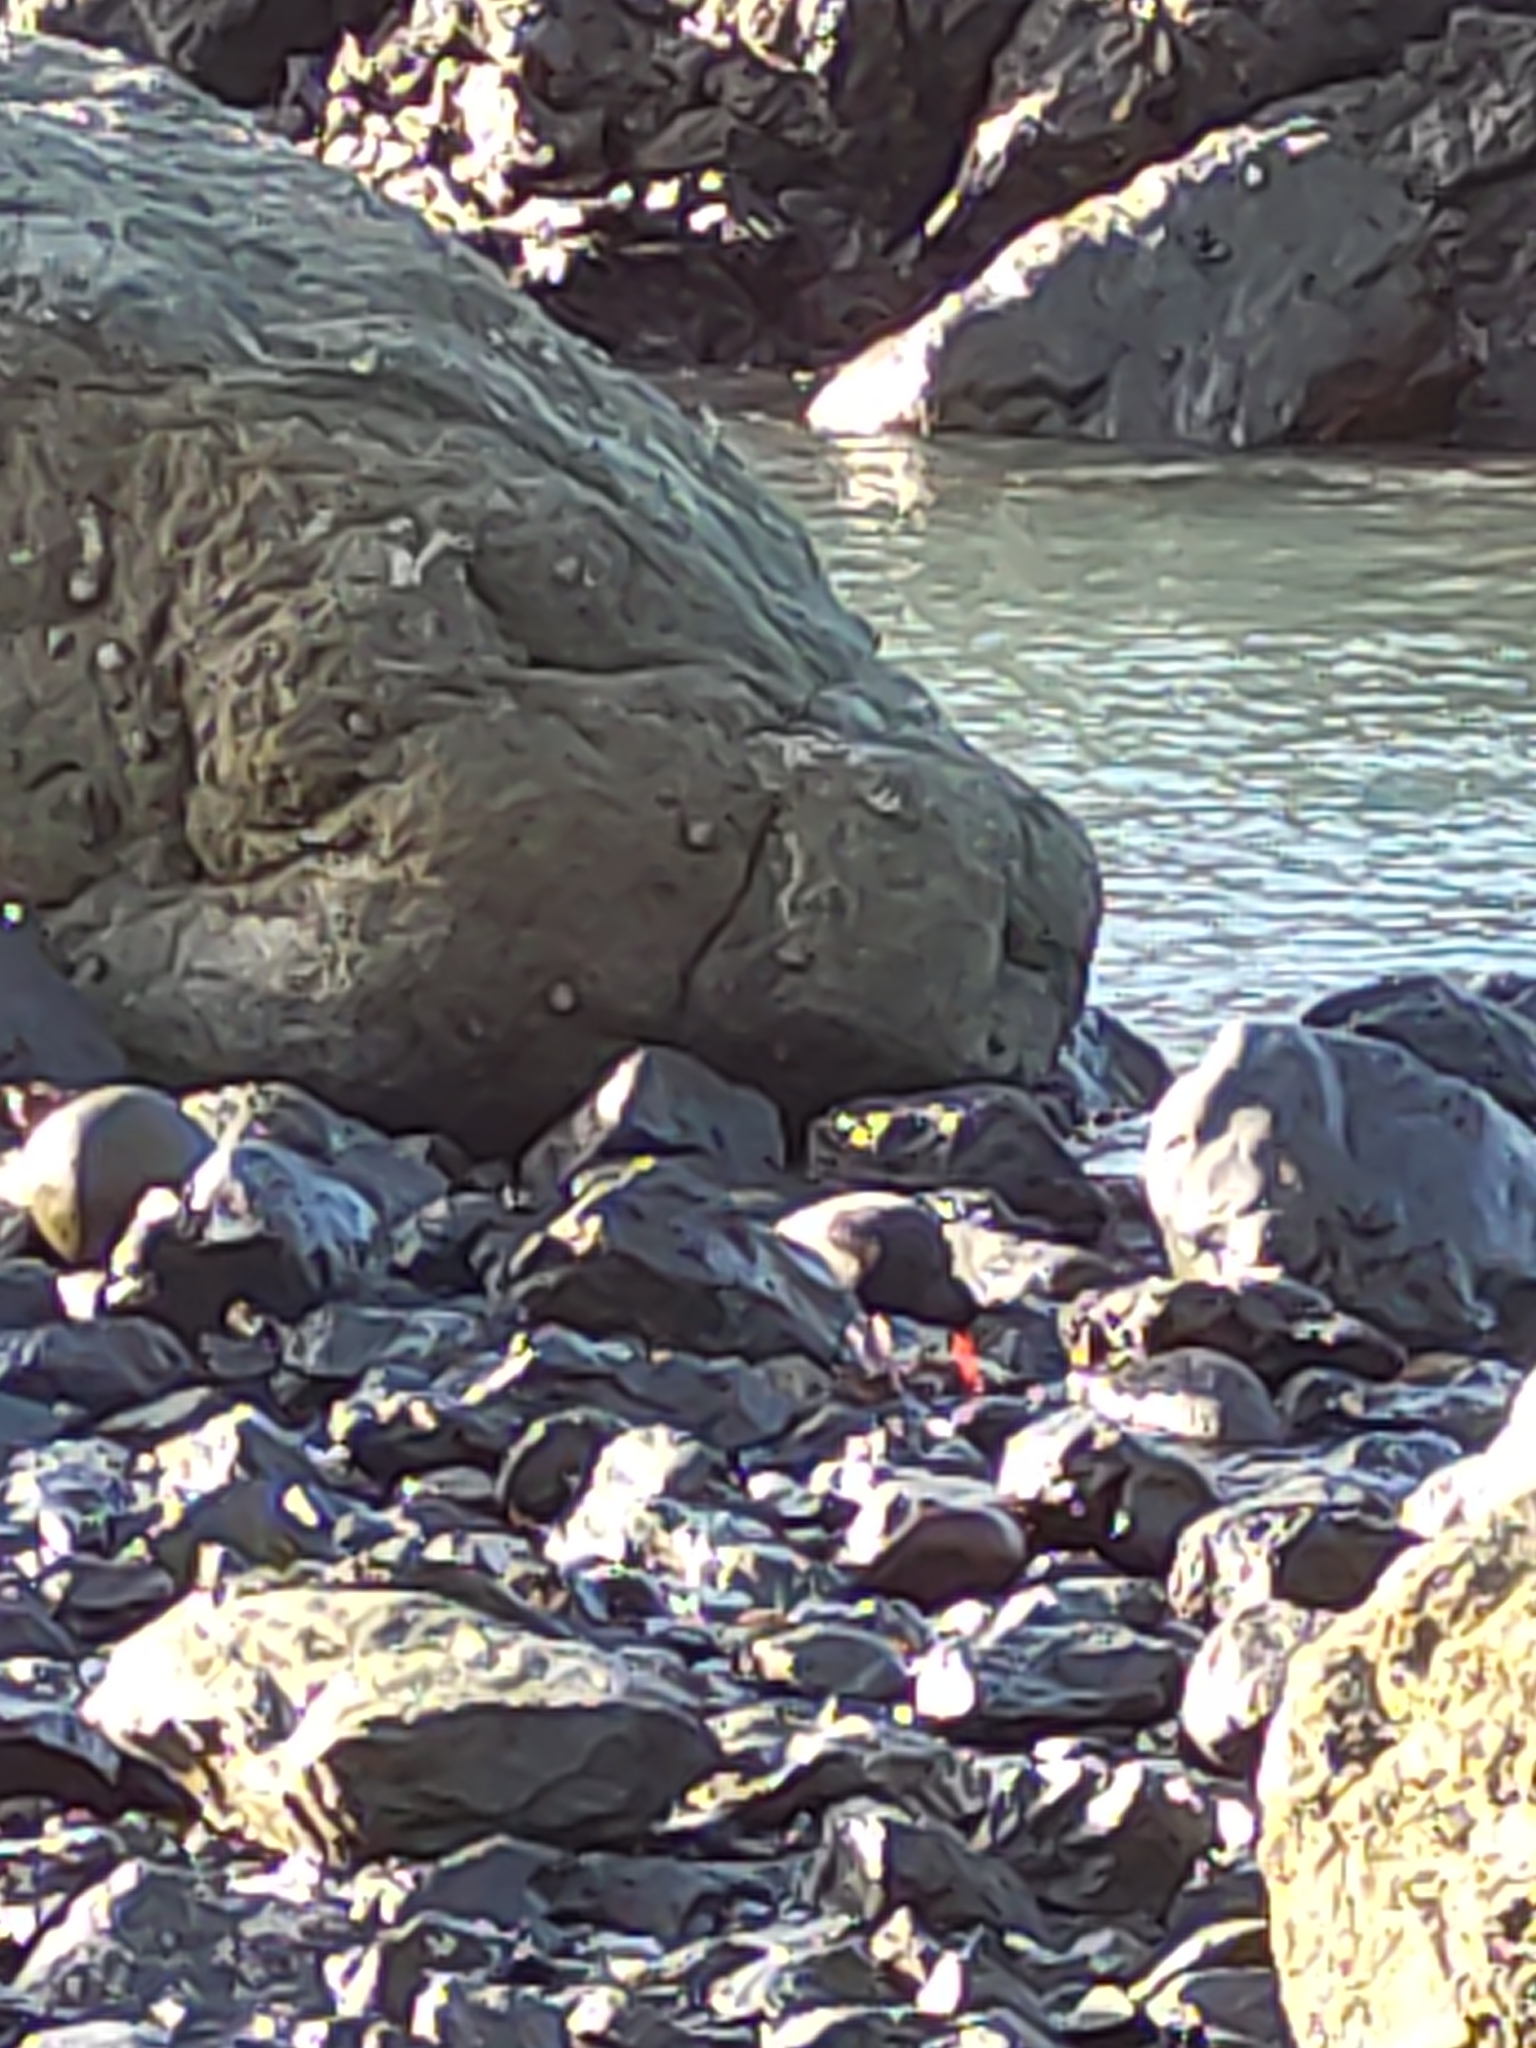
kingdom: Animalia
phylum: Chordata
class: Aves
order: Charadriiformes
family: Haematopodidae
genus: Haematopus
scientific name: Haematopus unicolor
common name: Variable oystercatcher
